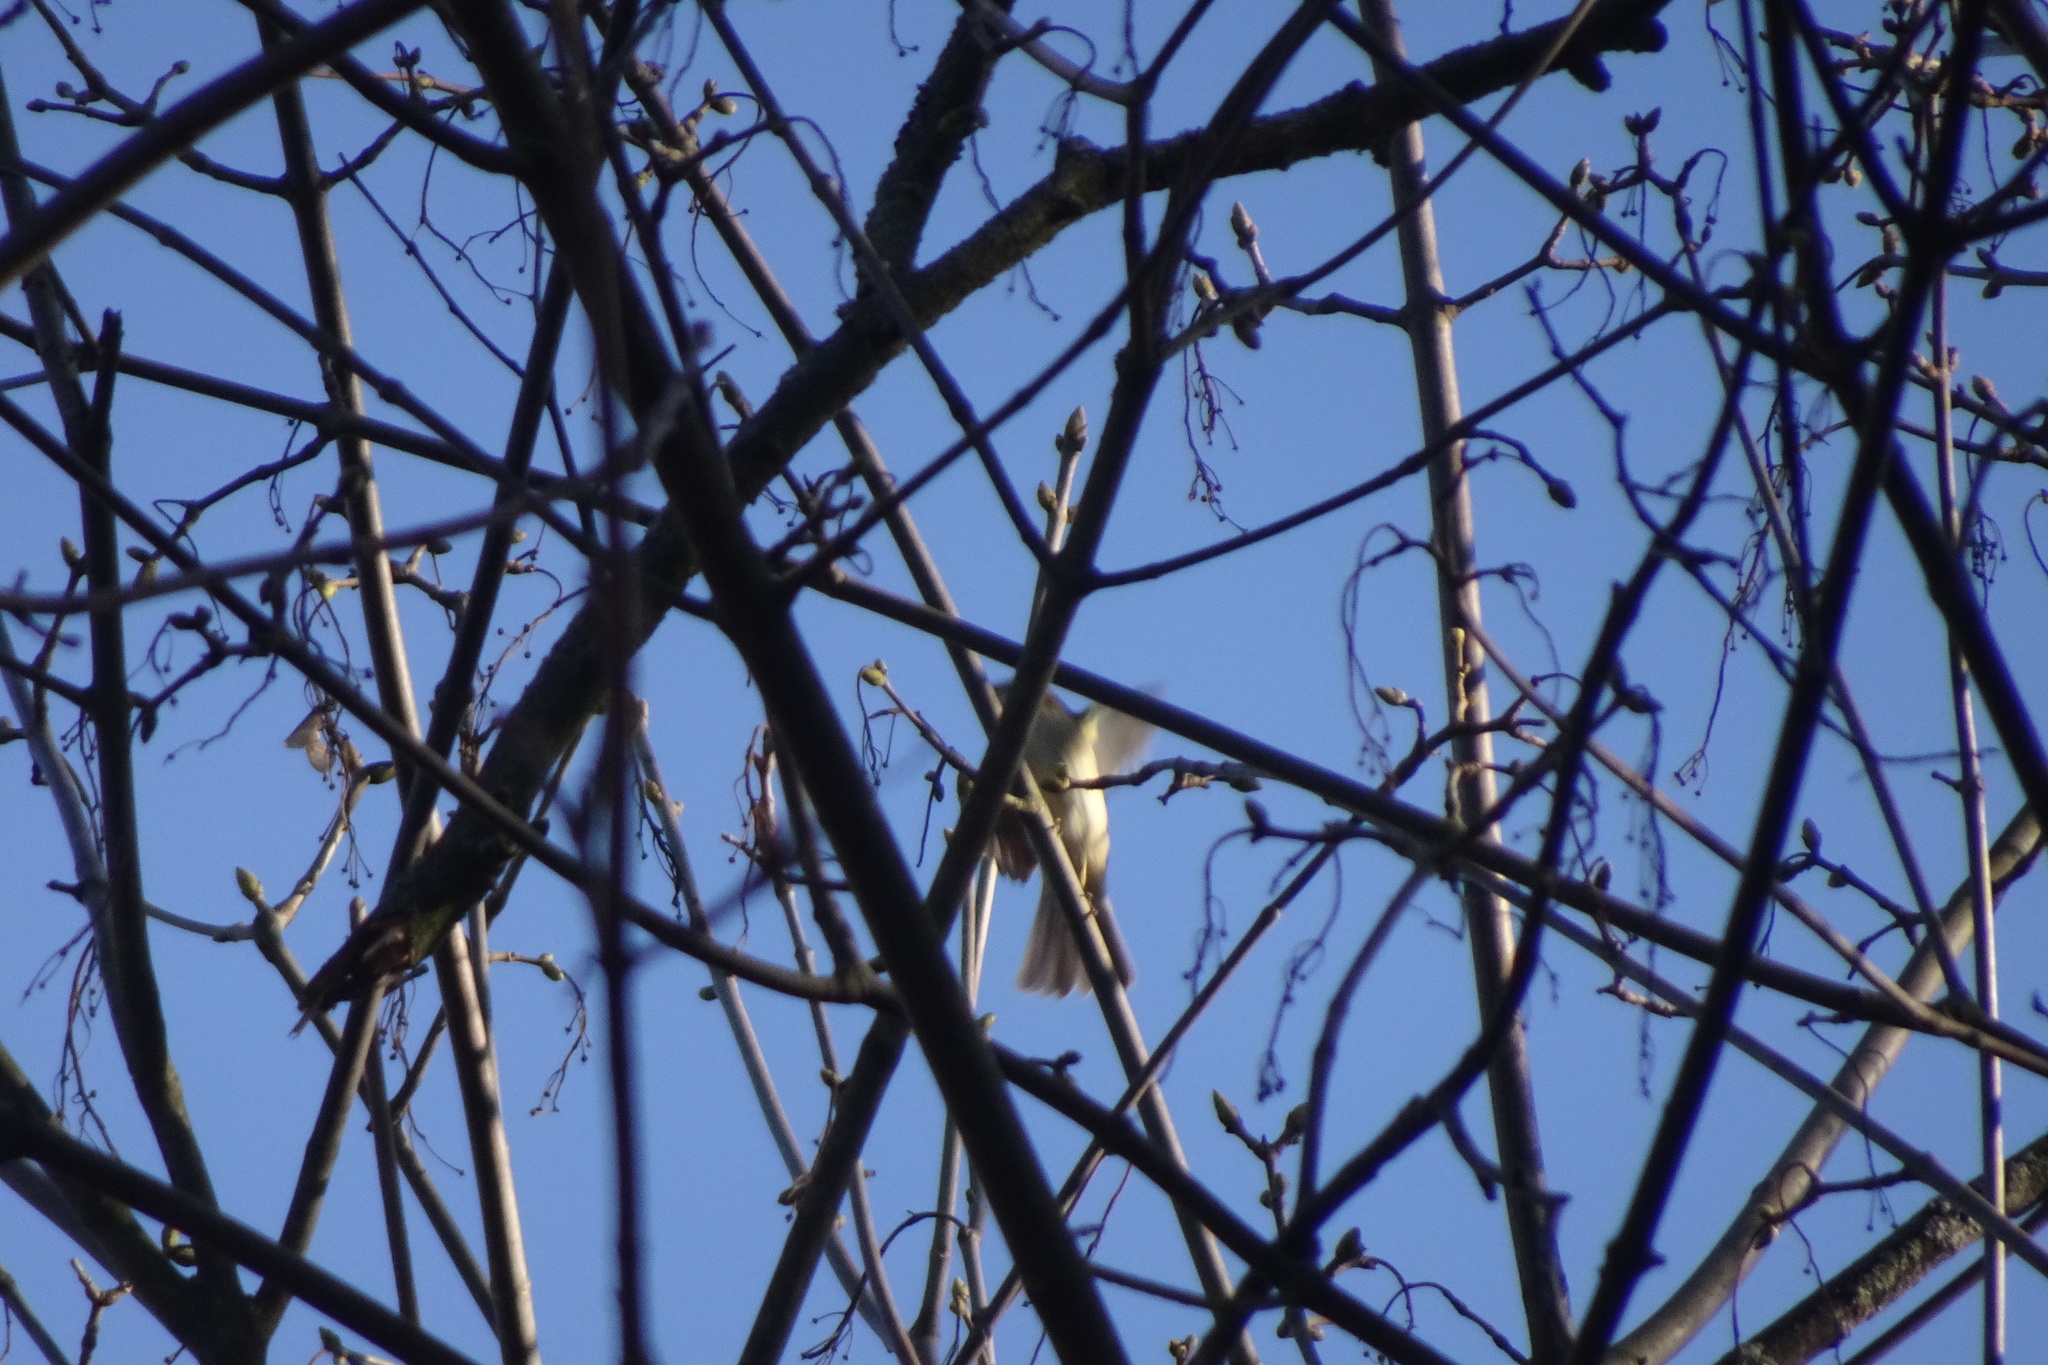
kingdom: Animalia
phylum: Chordata
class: Aves
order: Passeriformes
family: Phylloscopidae
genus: Phylloscopus
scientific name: Phylloscopus collybita
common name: Common chiffchaff
